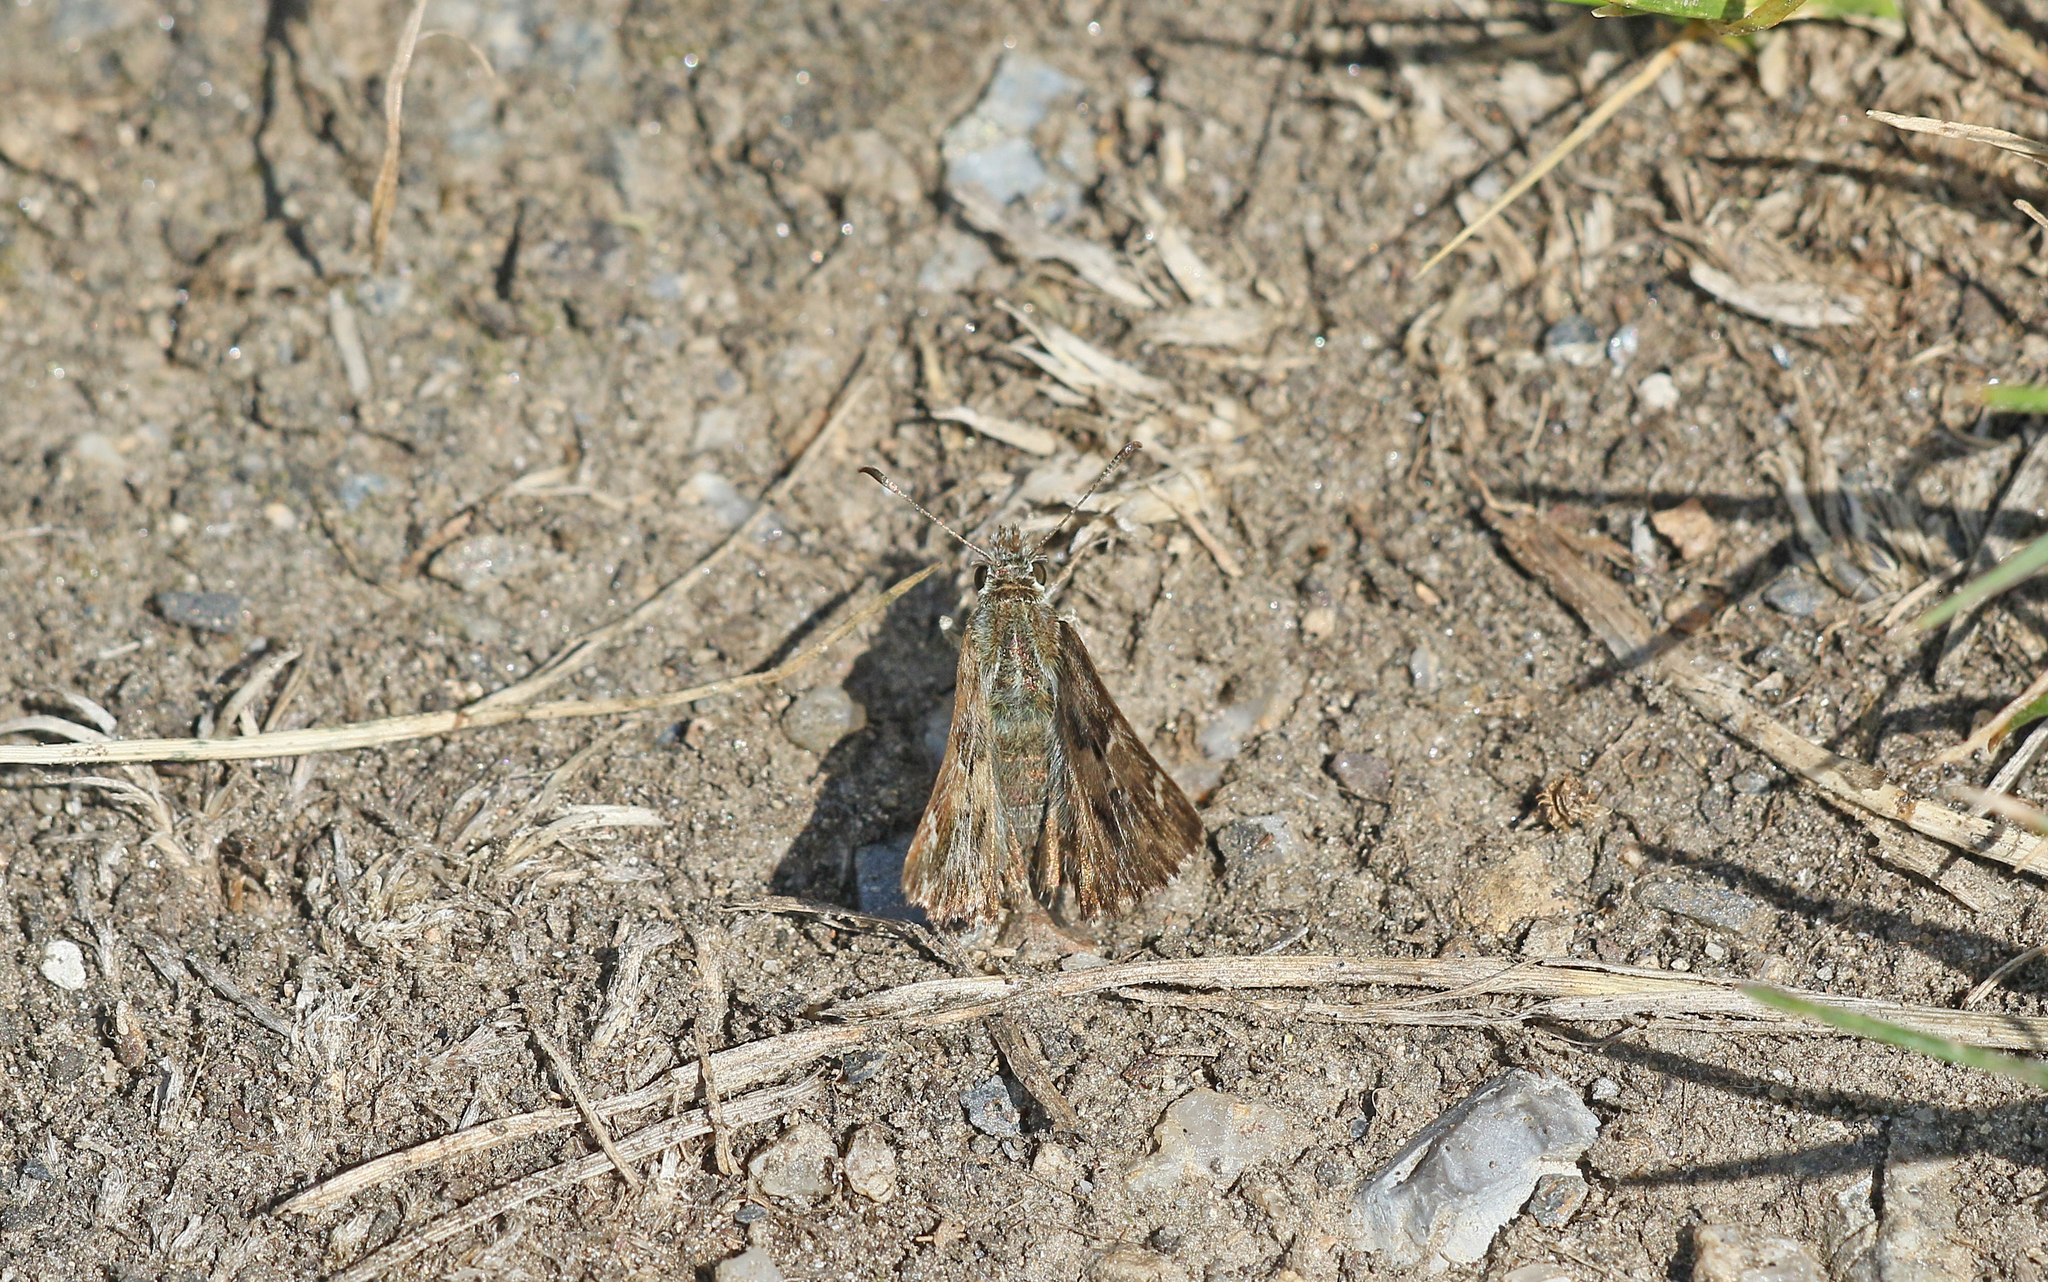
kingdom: Animalia
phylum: Arthropoda
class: Insecta
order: Lepidoptera
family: Hesperiidae
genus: Carcharodus
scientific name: Carcharodus alceae
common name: Mallow skipper
